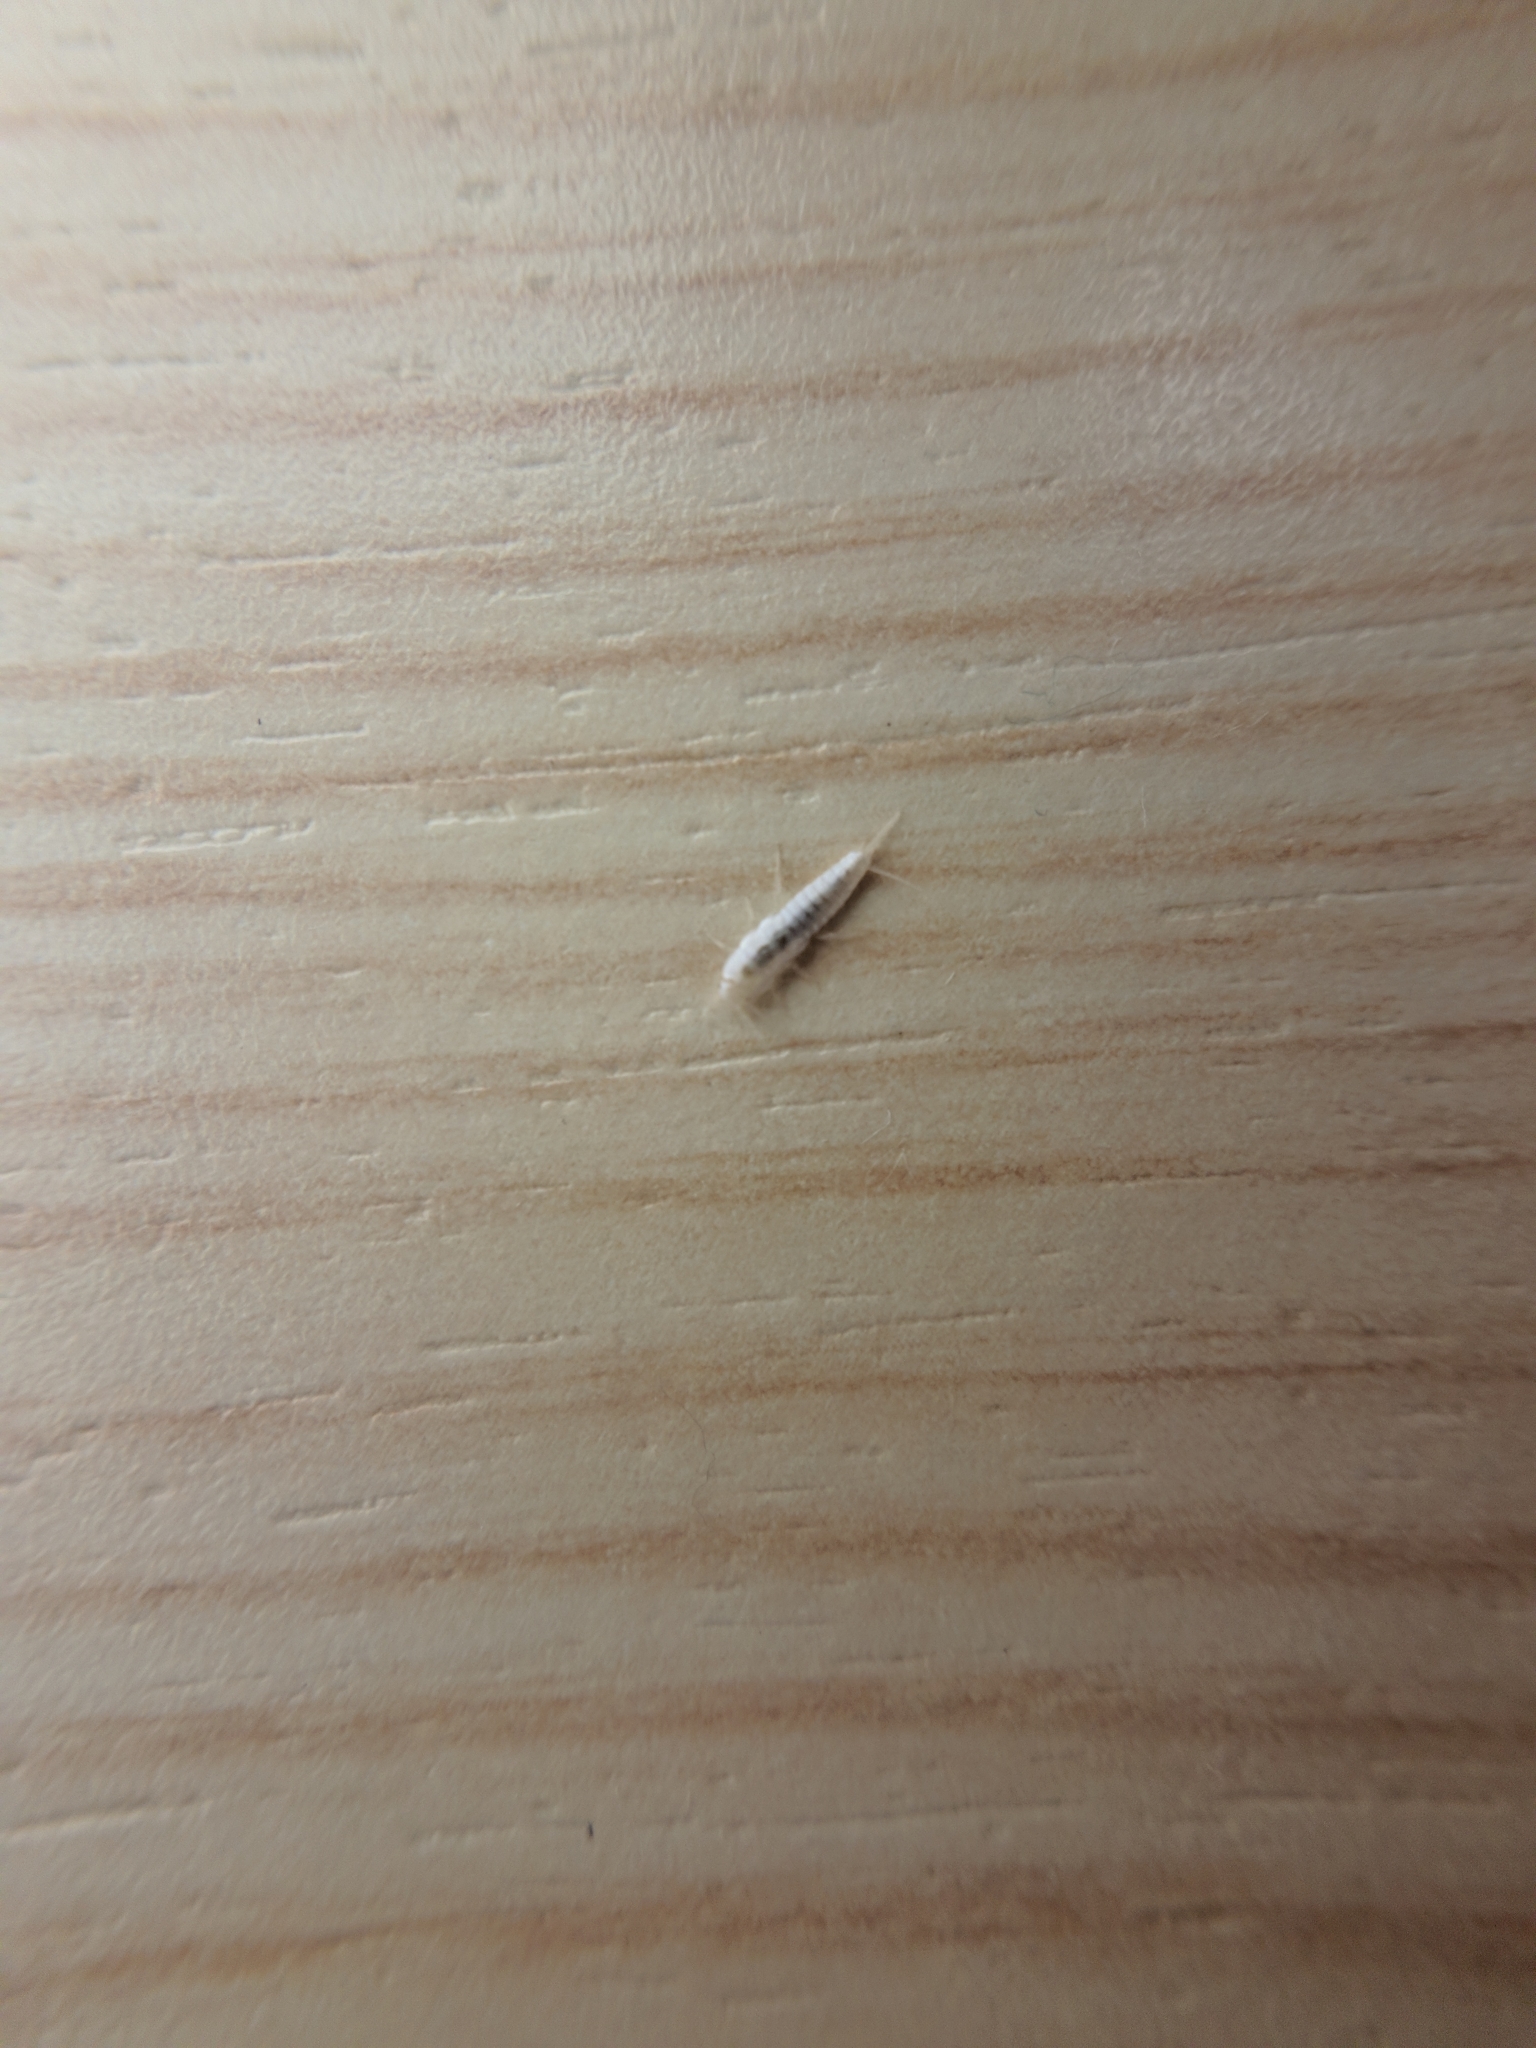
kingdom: Animalia
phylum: Arthropoda
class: Insecta
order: Zygentoma
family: Lepismatidae
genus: Ctenolepisma
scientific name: Ctenolepisma calvum
